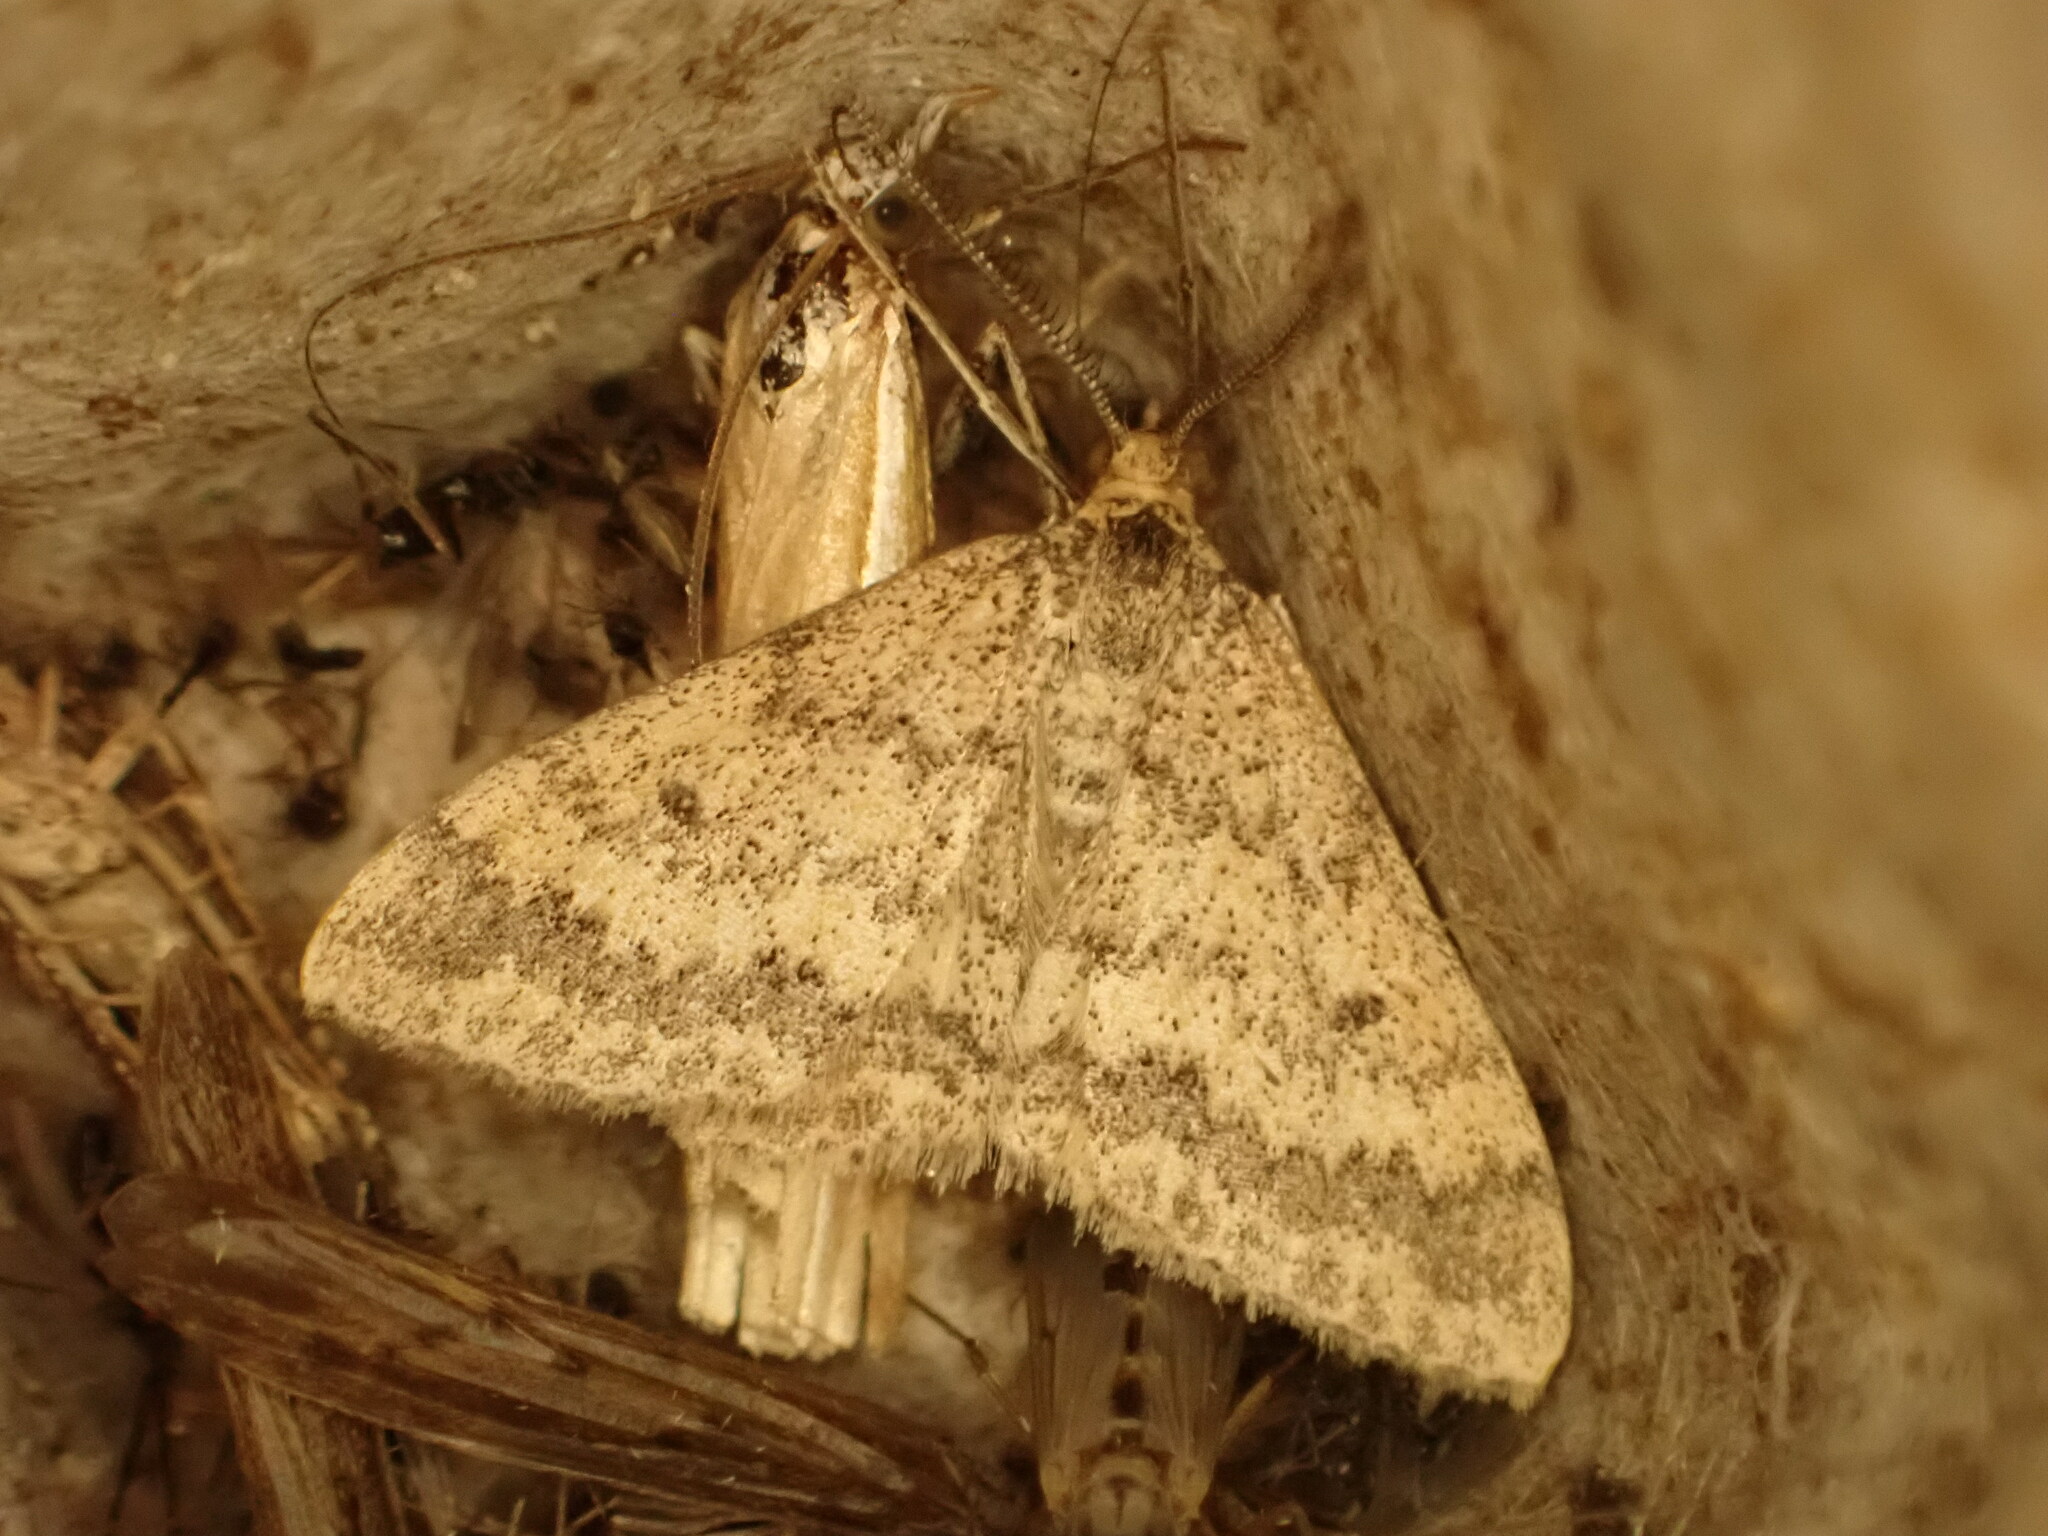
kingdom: Animalia
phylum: Arthropoda
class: Insecta
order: Lepidoptera
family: Geometridae
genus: Scopula
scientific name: Scopula rubraria
